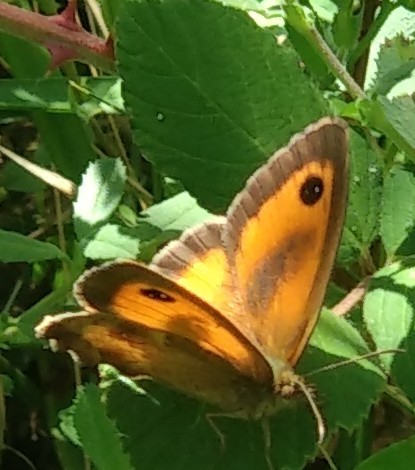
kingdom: Animalia
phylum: Arthropoda
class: Insecta
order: Lepidoptera
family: Nymphalidae
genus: Pyronia
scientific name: Pyronia tithonus
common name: Gatekeeper
